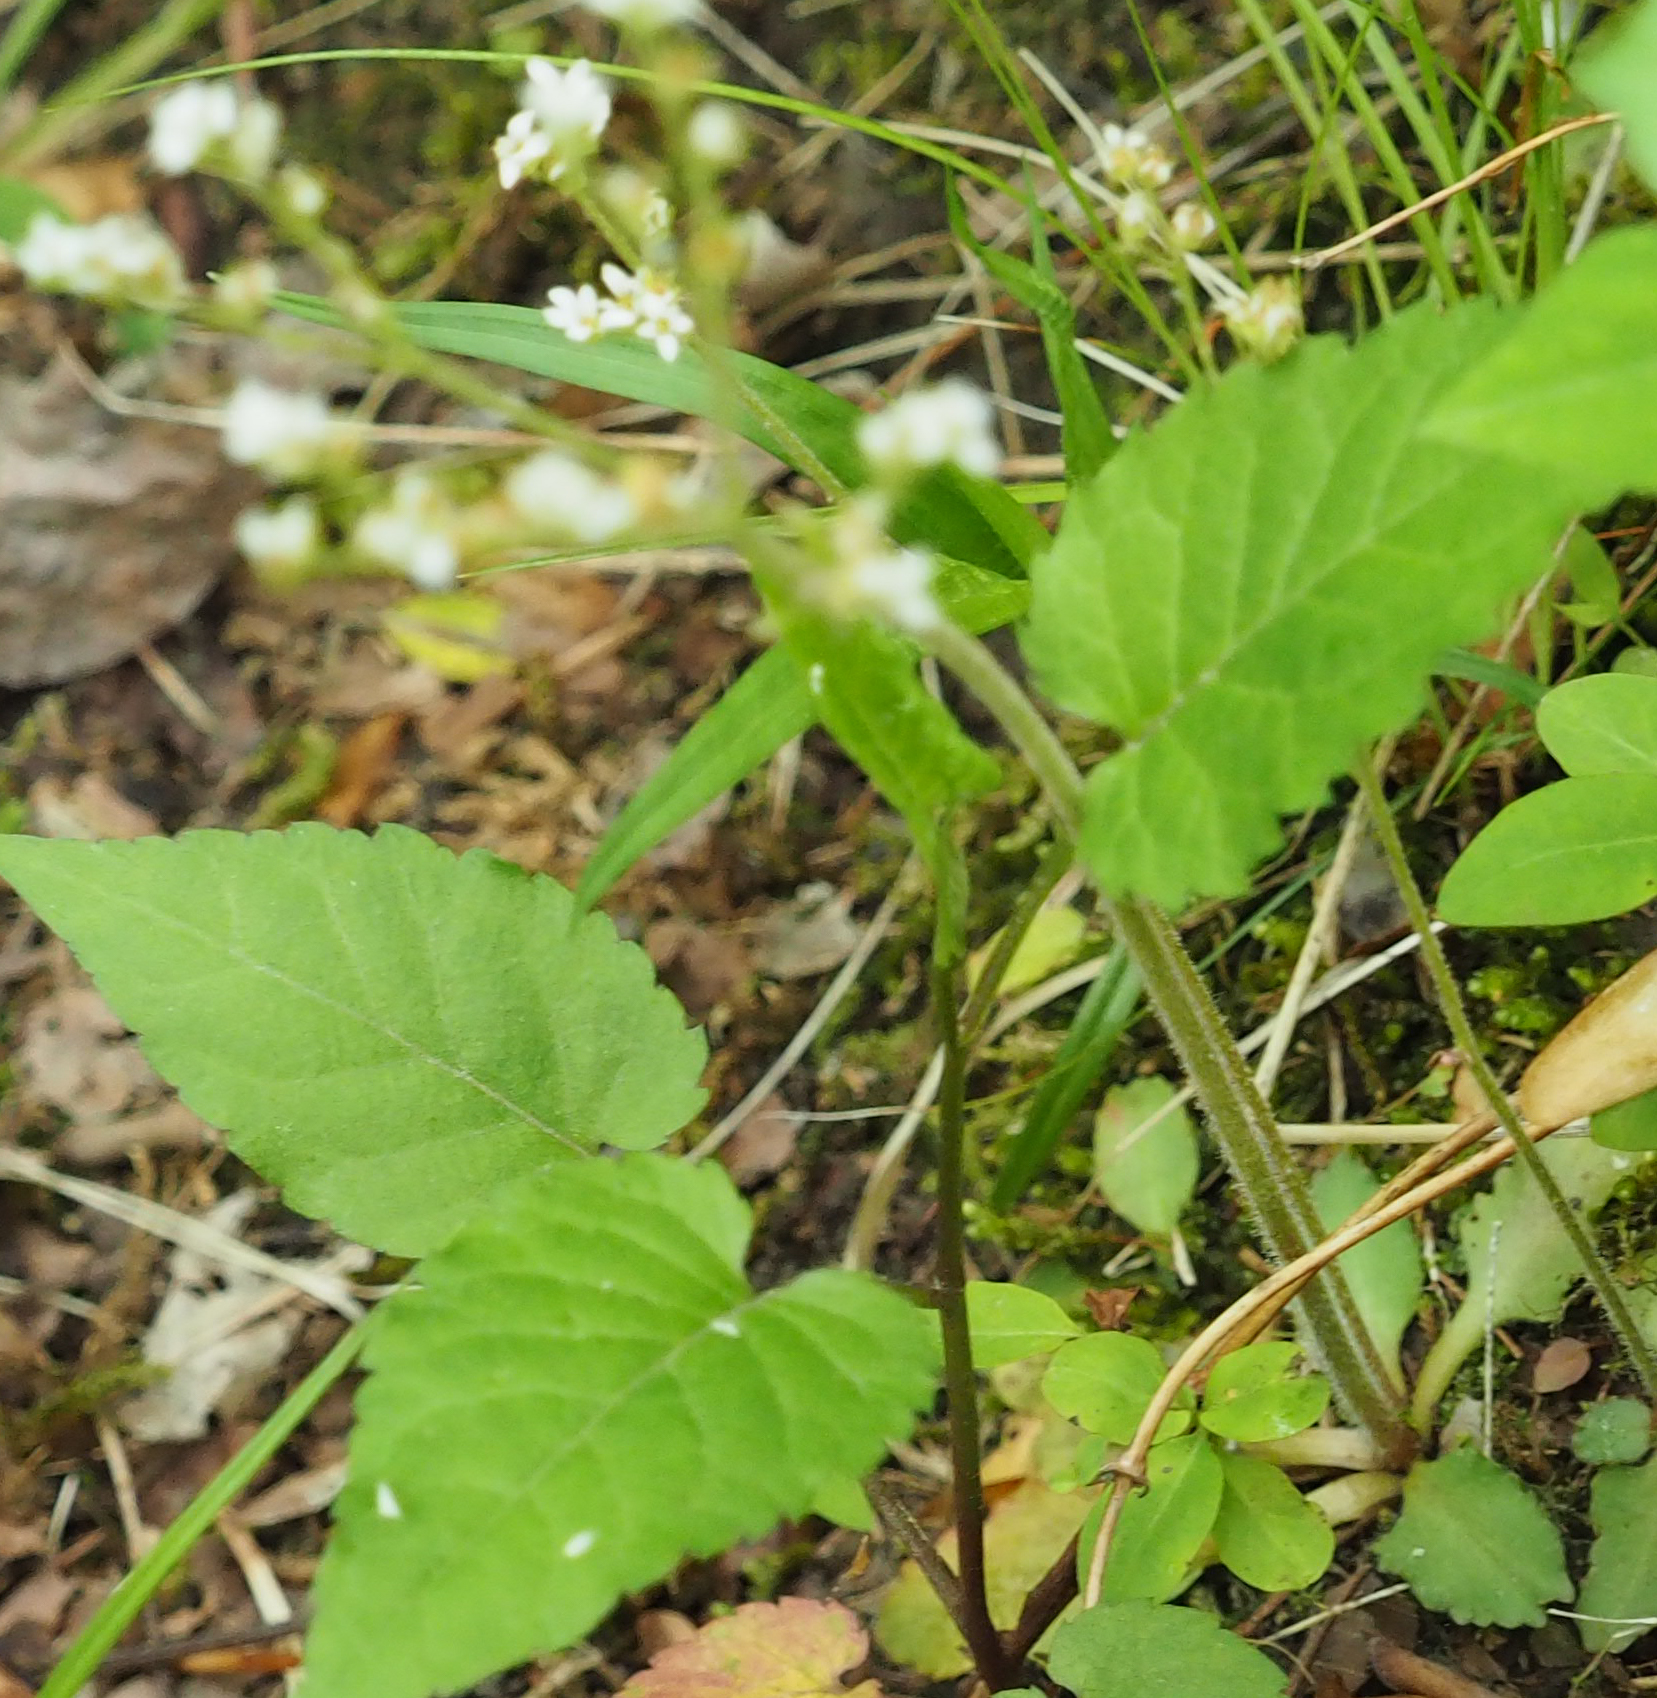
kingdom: Plantae
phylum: Tracheophyta
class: Magnoliopsida
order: Saxifragales
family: Saxifragaceae
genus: Micranthes
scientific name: Micranthes virginiensis
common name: Early saxifrage
